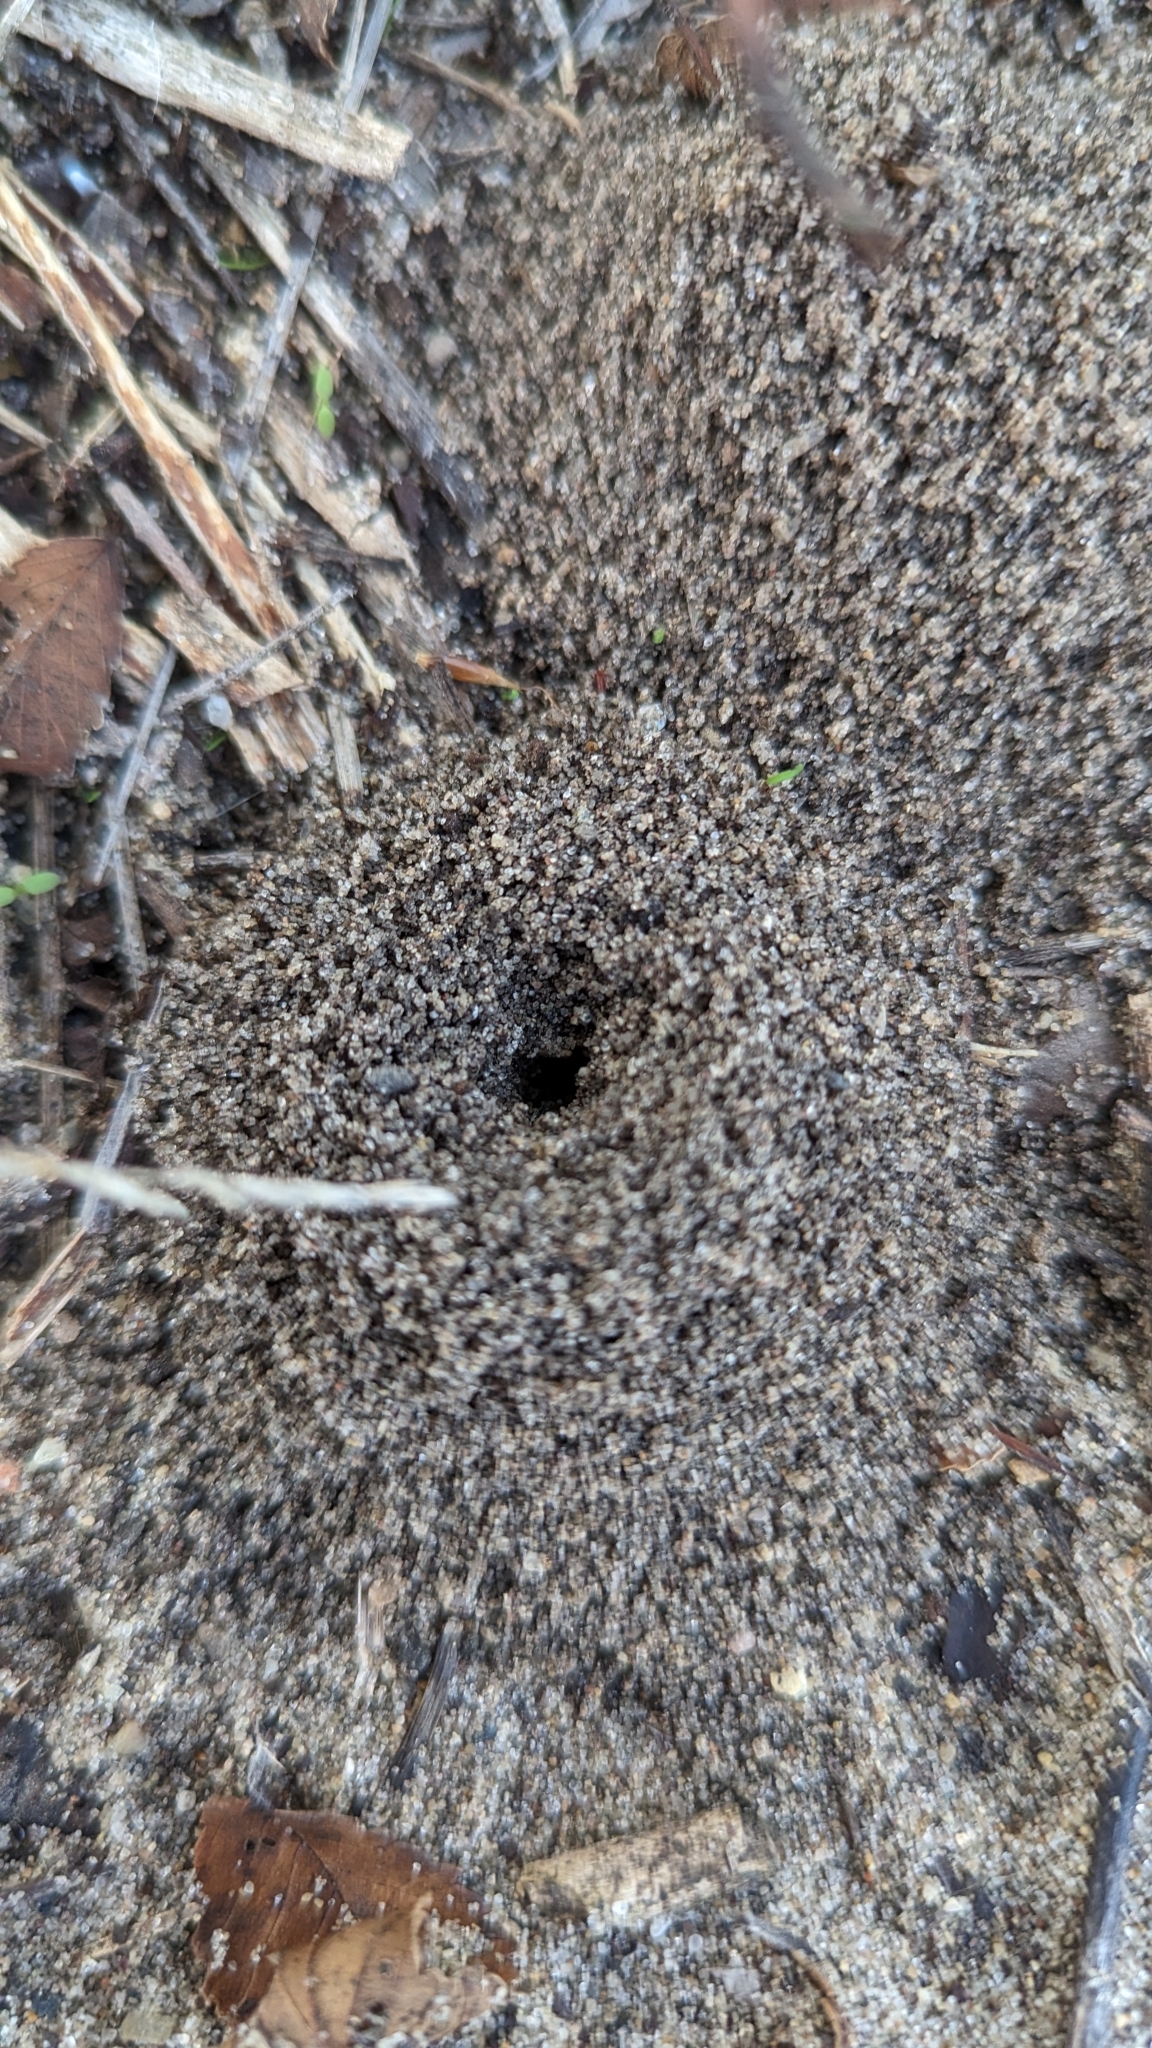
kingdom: Animalia
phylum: Arthropoda
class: Insecta
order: Hymenoptera
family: Formicidae
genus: Lasius
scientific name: Lasius neoniger
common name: Turfgrass ant
